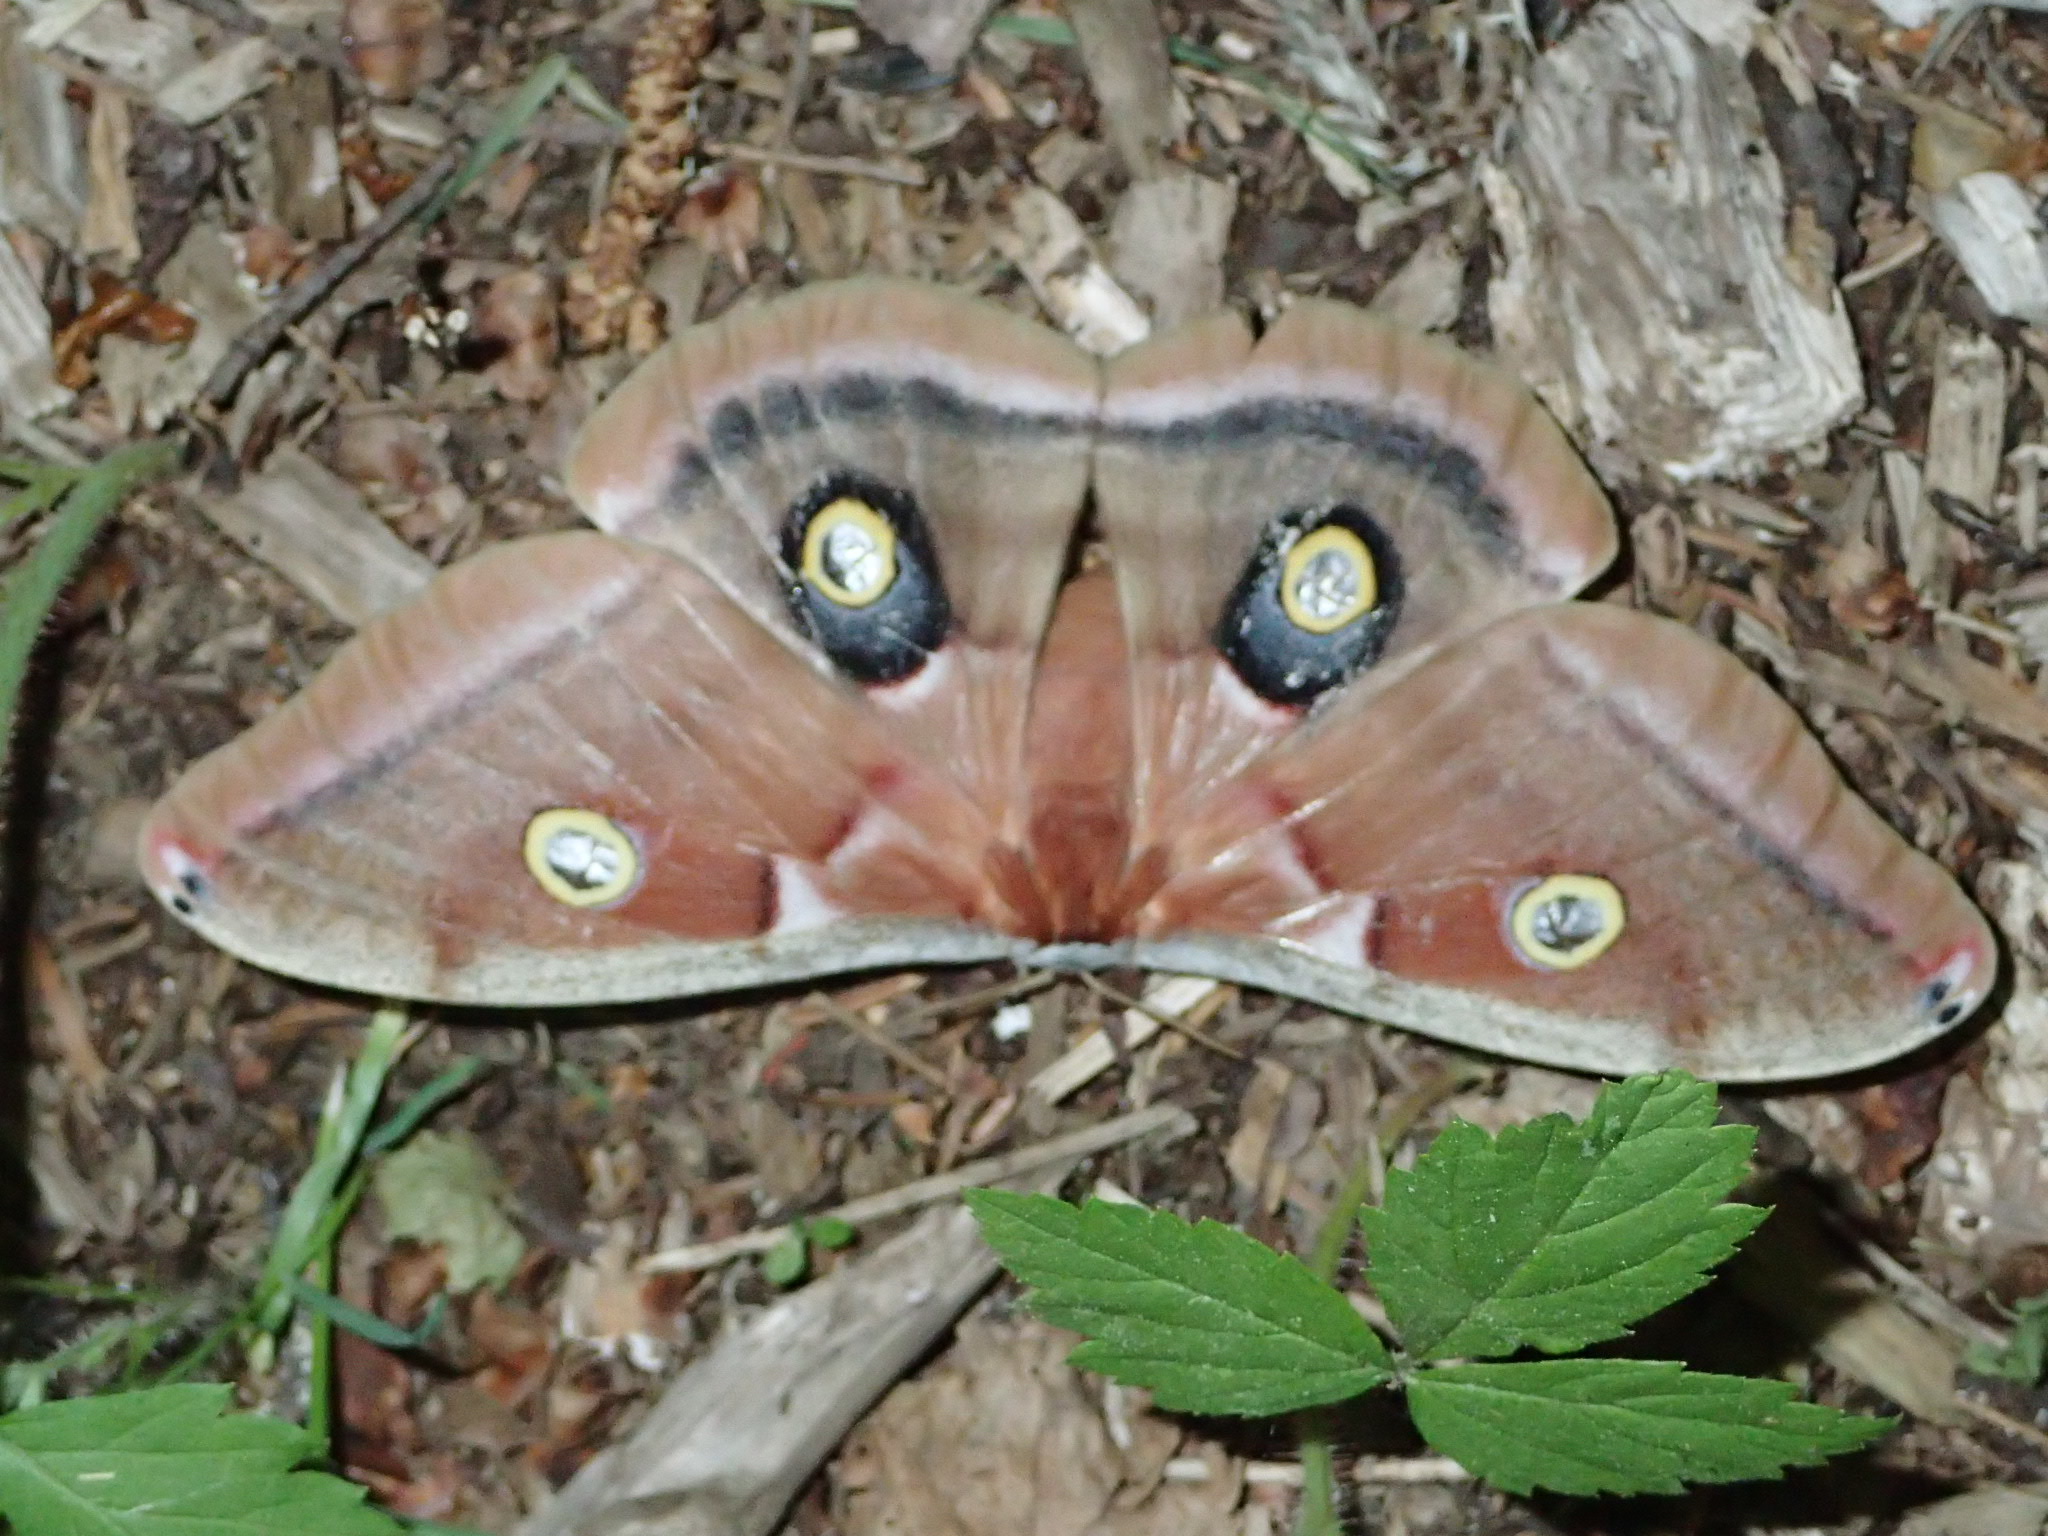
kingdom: Animalia
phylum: Arthropoda
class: Insecta
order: Lepidoptera
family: Saturniidae
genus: Antheraea
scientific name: Antheraea polyphemus
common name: Polyphemus moth
